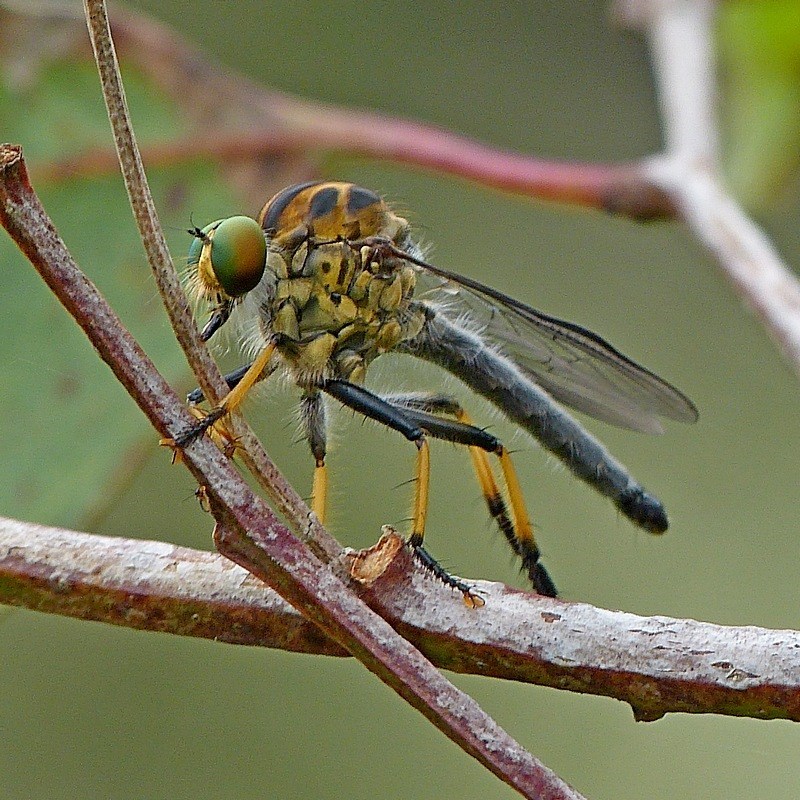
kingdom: Animalia
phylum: Arthropoda
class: Insecta
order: Diptera
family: Asilidae
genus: Ommatius
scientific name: Ommatius coeraebus
